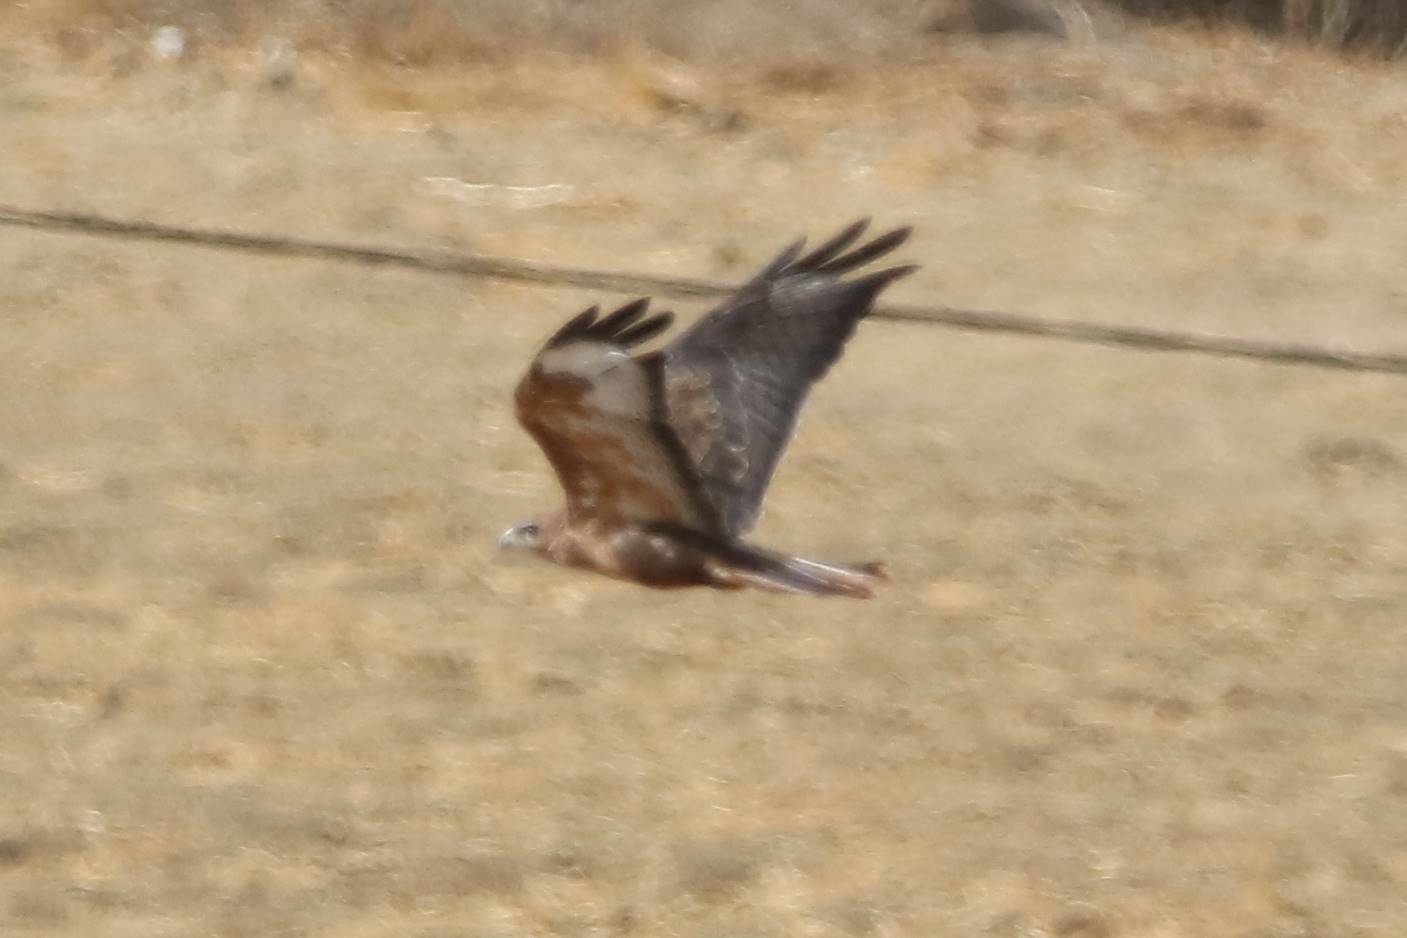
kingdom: Animalia
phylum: Chordata
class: Aves
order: Accipitriformes
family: Accipitridae
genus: Buteo
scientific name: Buteo rufinus
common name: Long-legged buzzard
